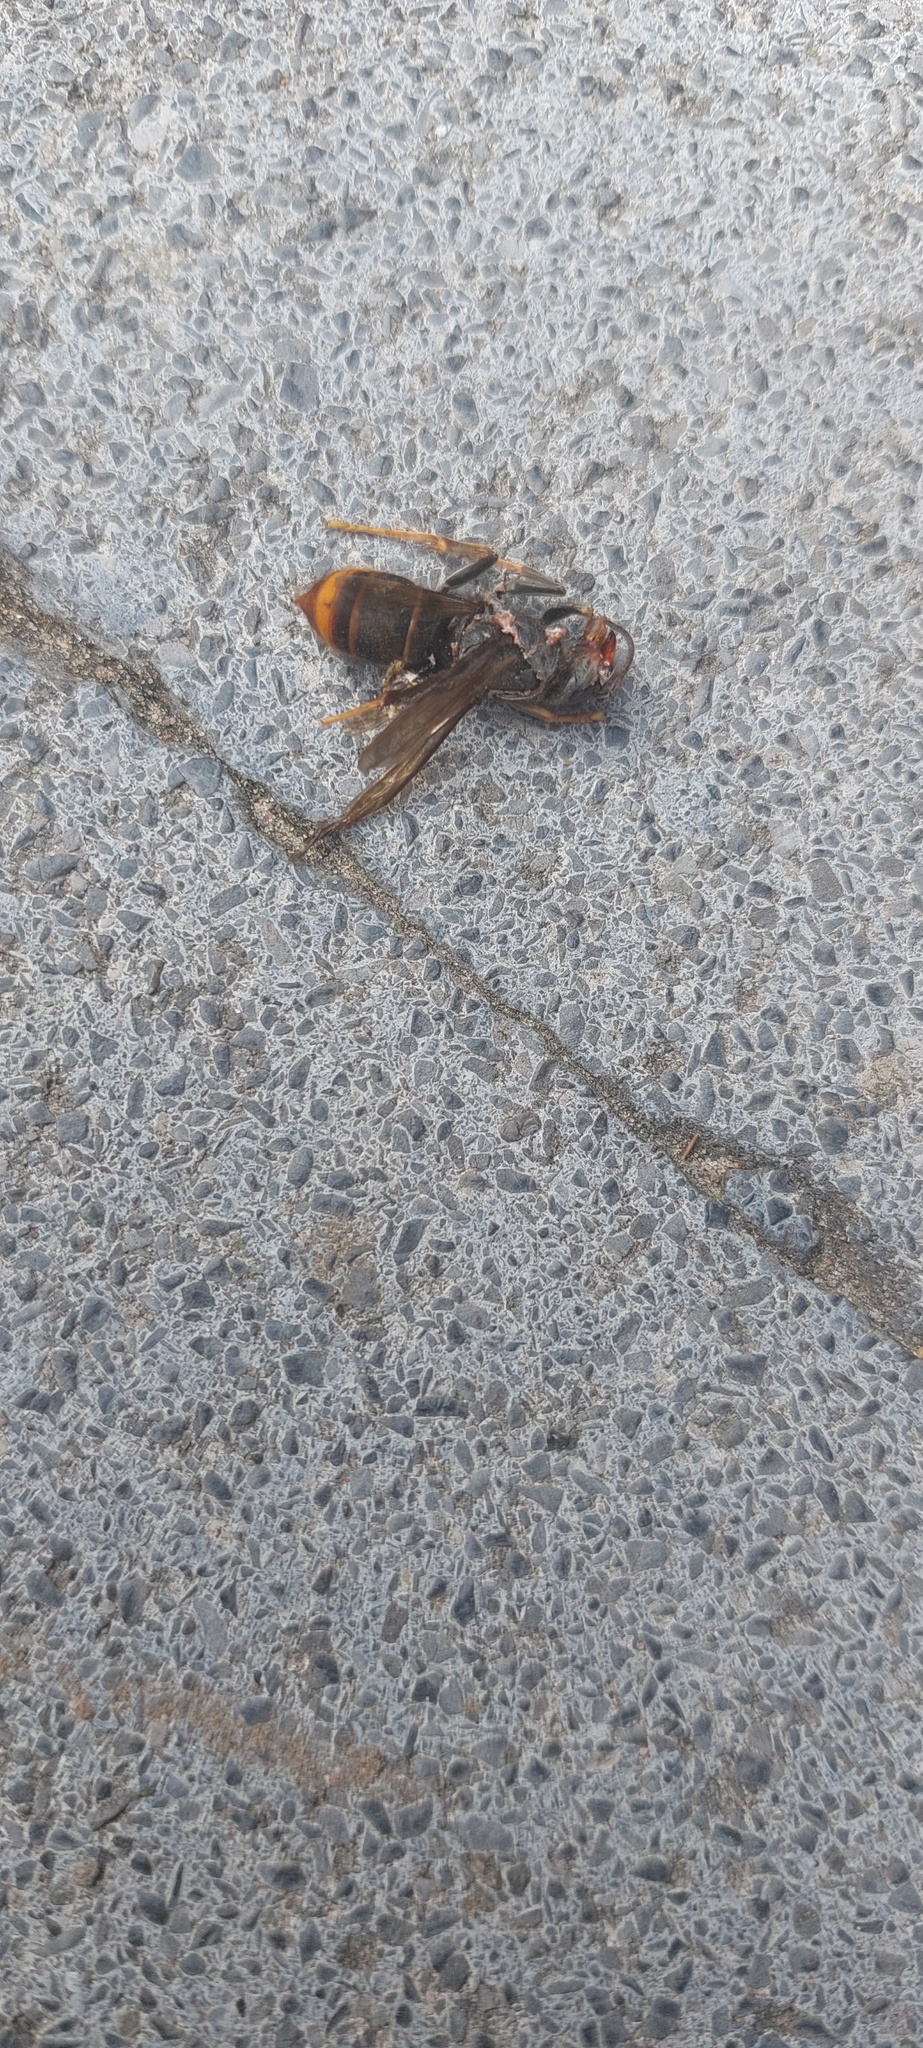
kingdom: Animalia
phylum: Arthropoda
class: Insecta
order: Hymenoptera
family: Vespidae
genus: Vespa
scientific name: Vespa velutina
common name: Asian hornet
